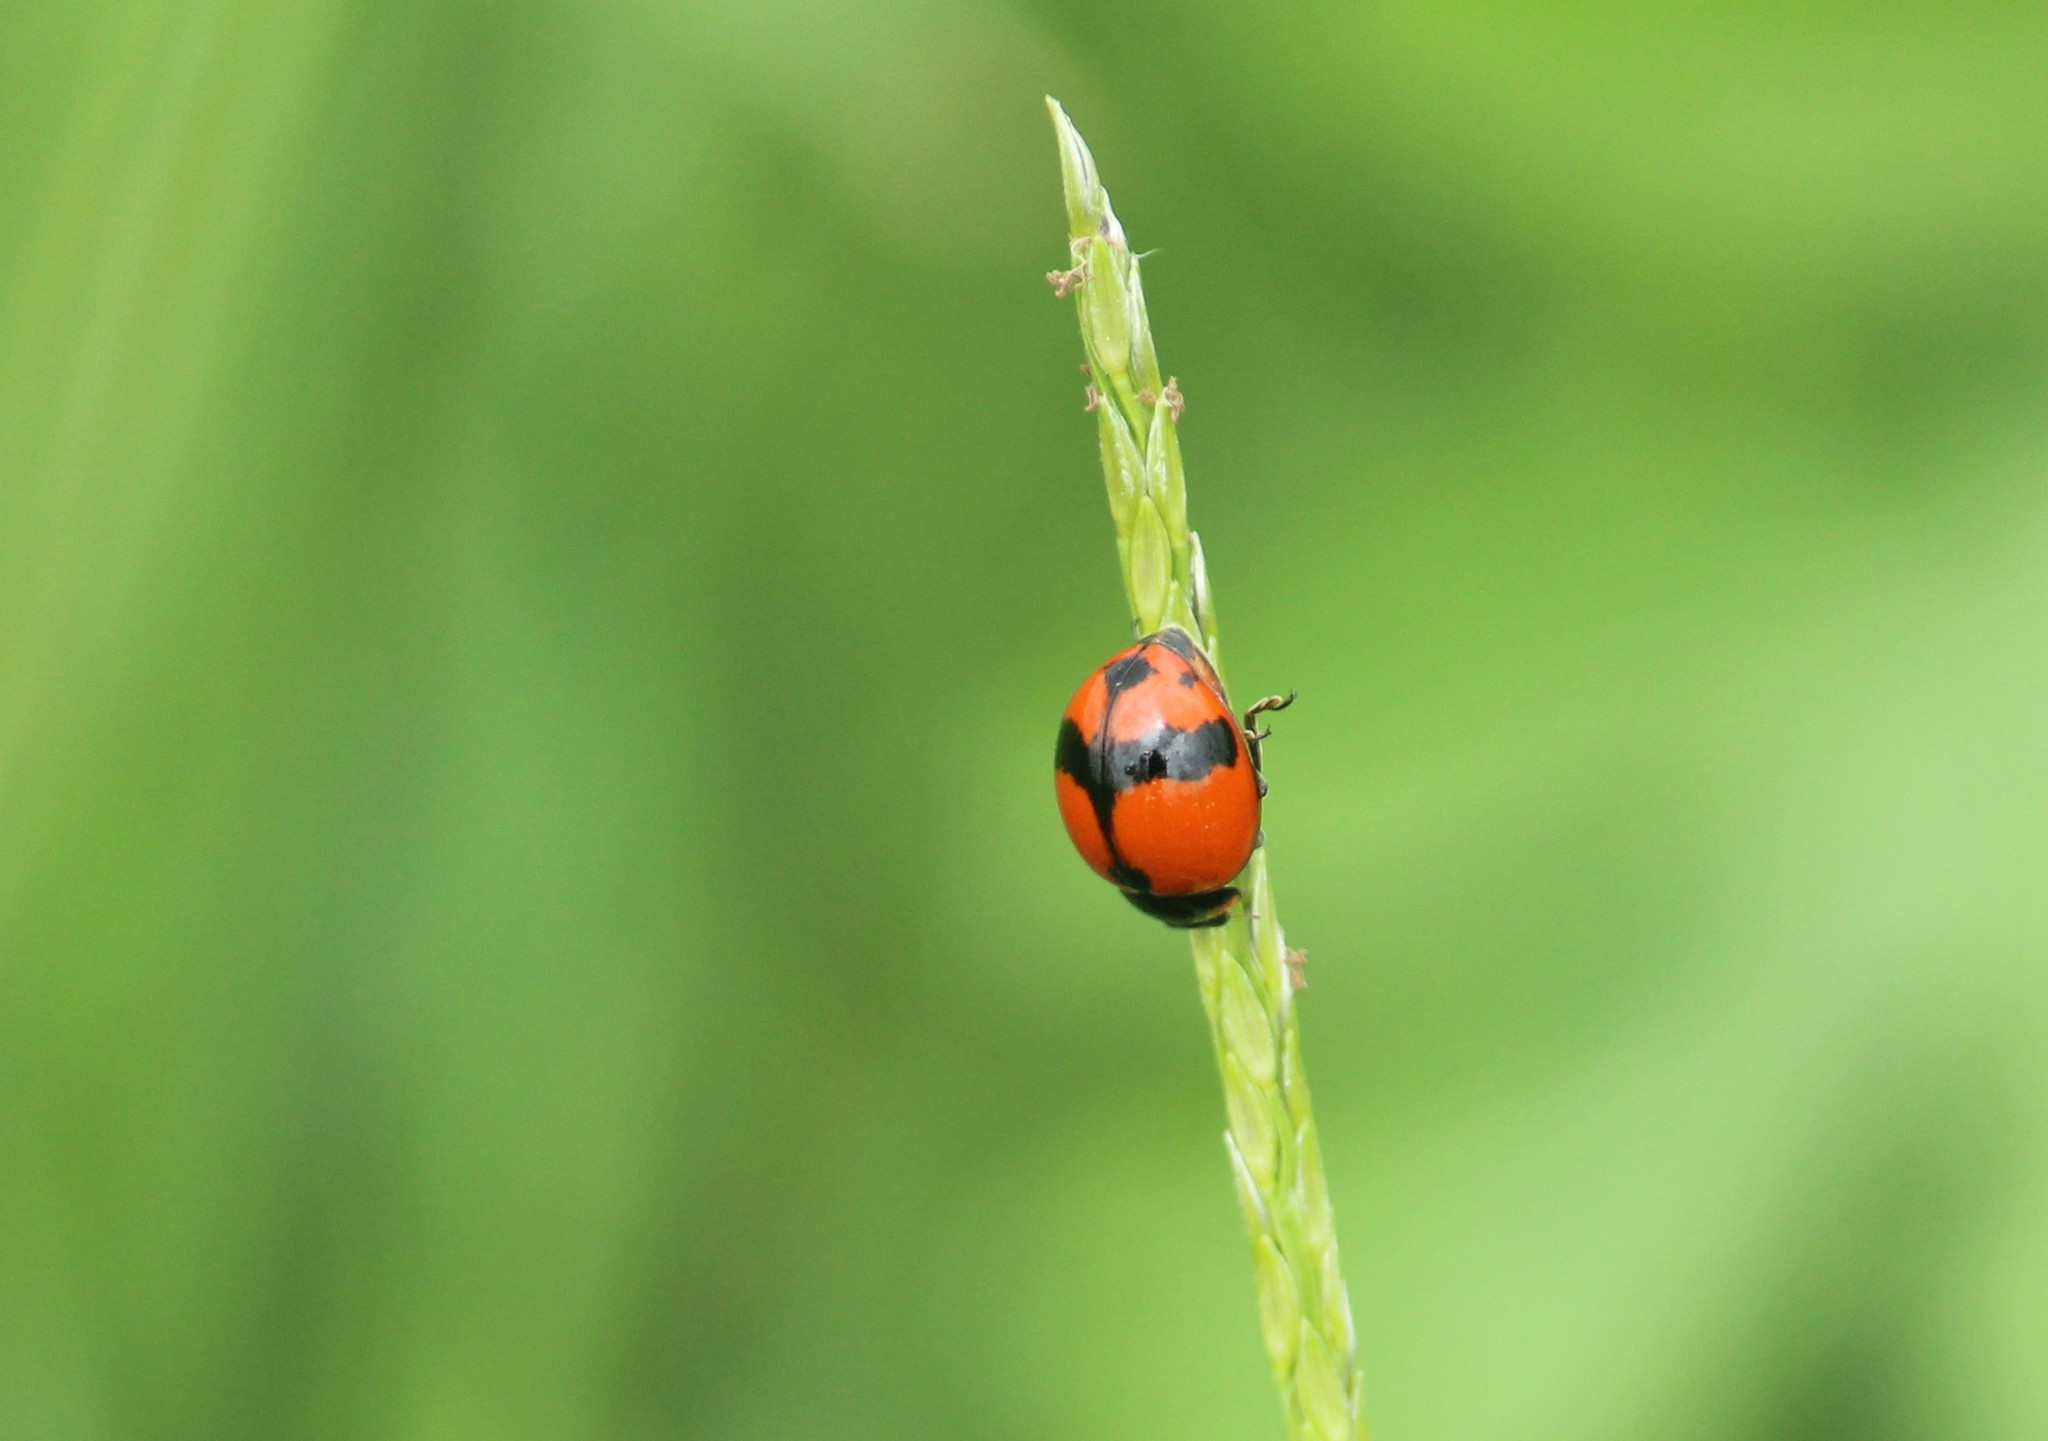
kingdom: Animalia
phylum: Arthropoda
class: Insecta
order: Coleoptera
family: Coccinellidae
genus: Coccinella
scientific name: Coccinella transversalis
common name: Transverse lady beetle
